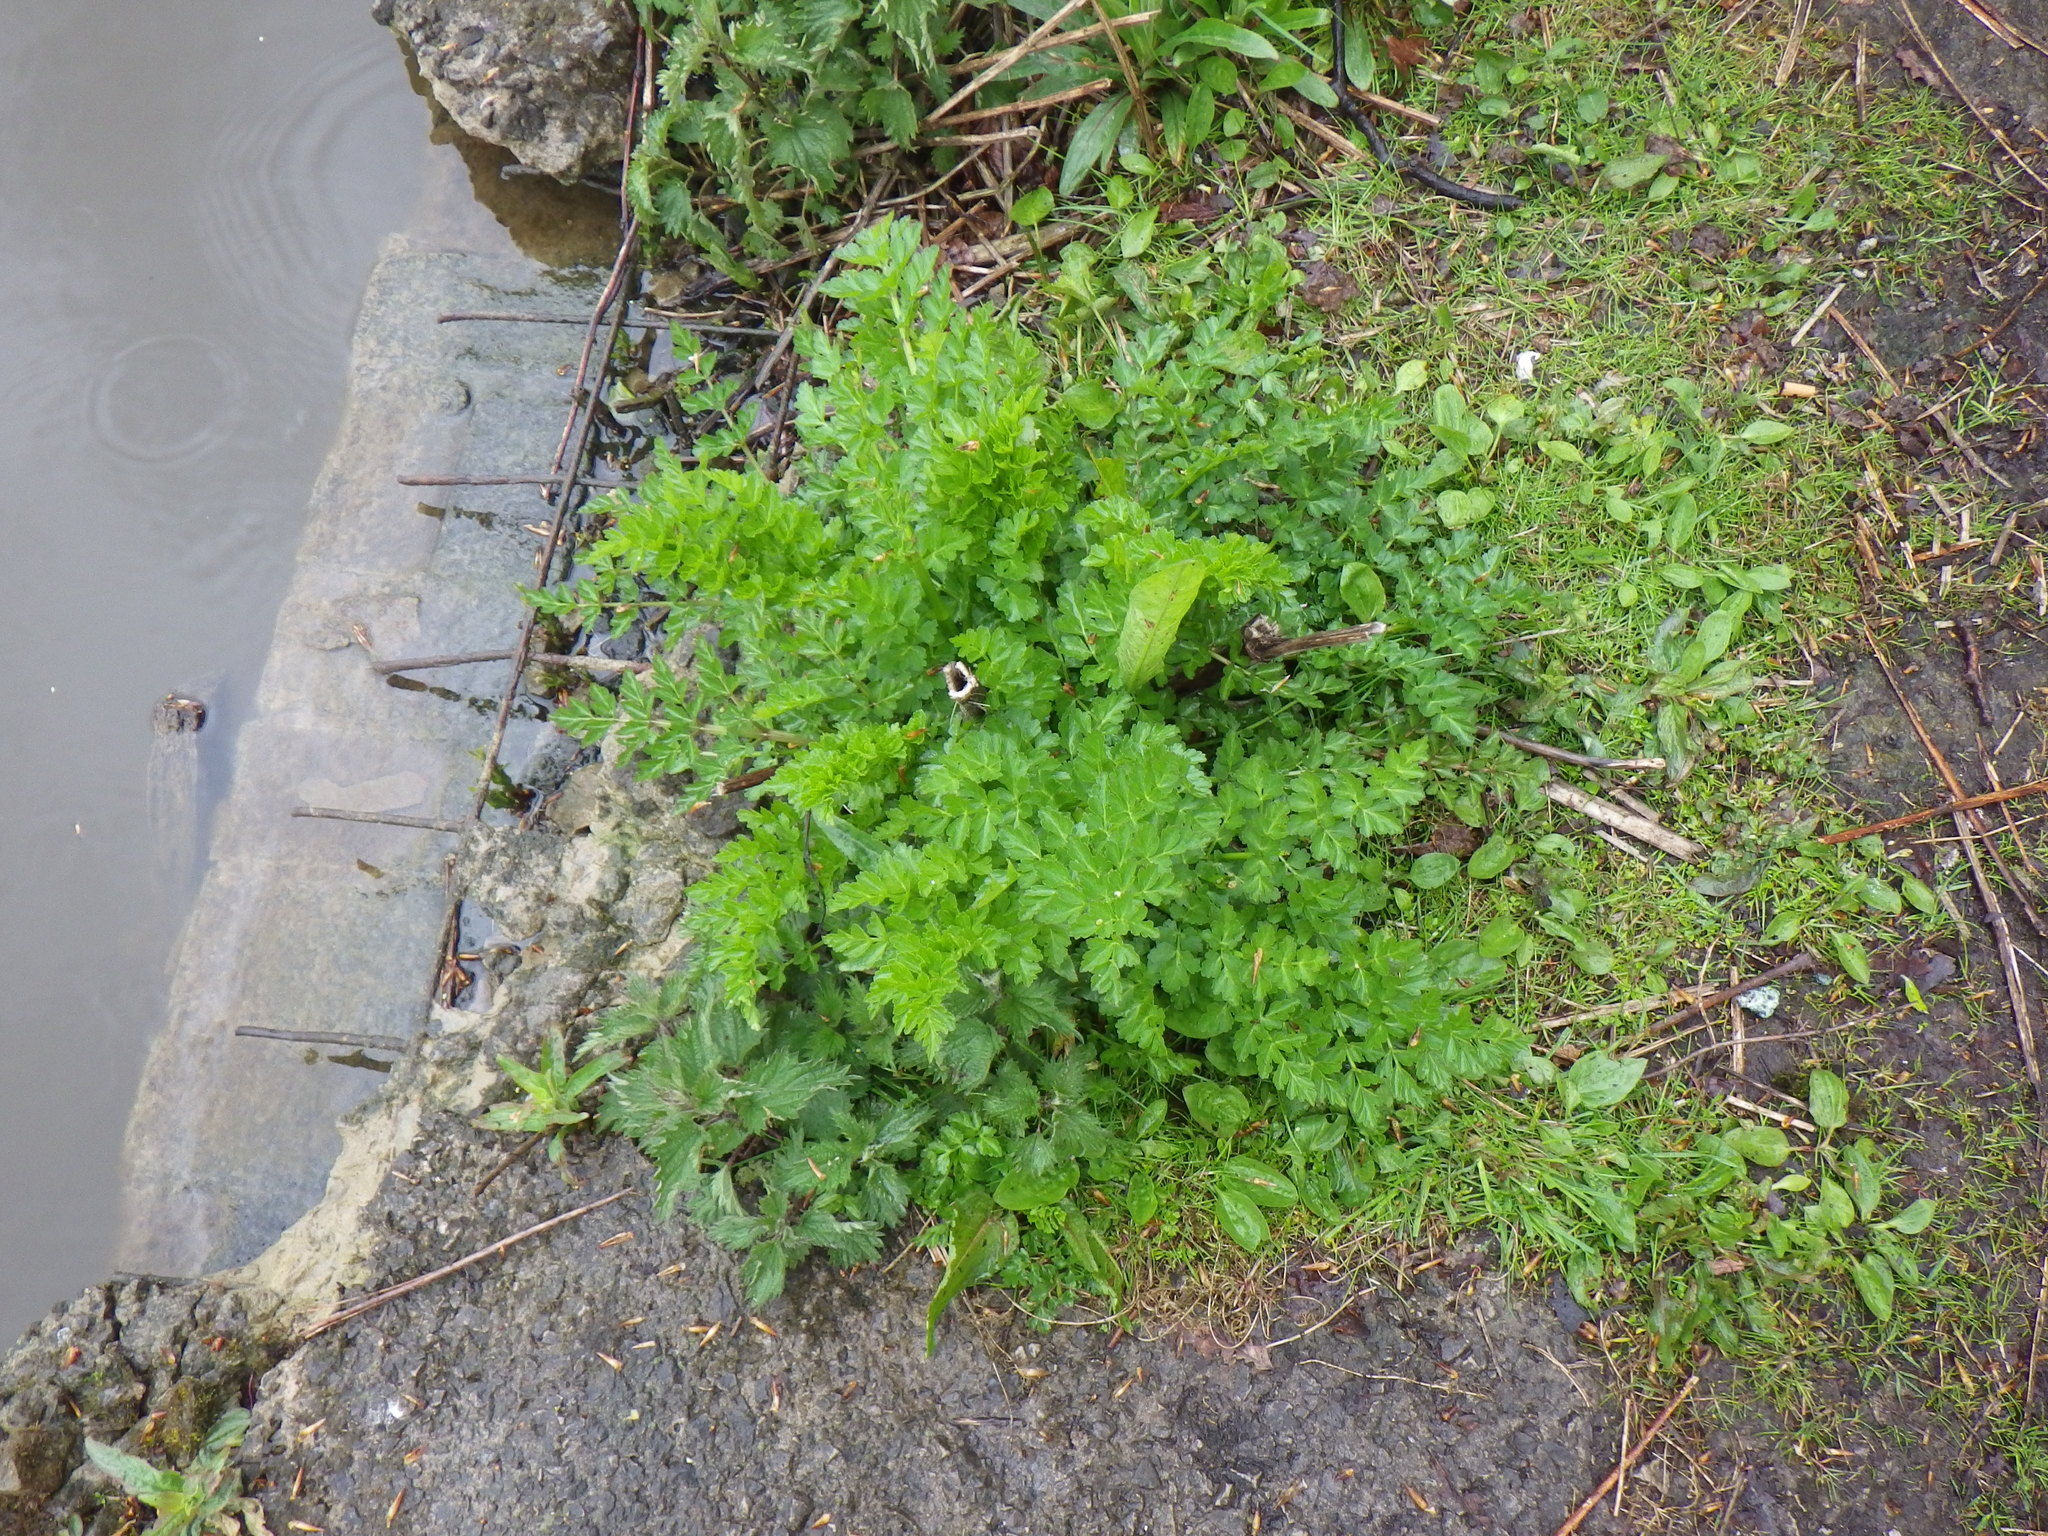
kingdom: Plantae
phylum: Tracheophyta
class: Magnoliopsida
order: Apiales
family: Apiaceae
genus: Oenanthe
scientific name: Oenanthe crocata
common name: Hemlock water-dropwort
